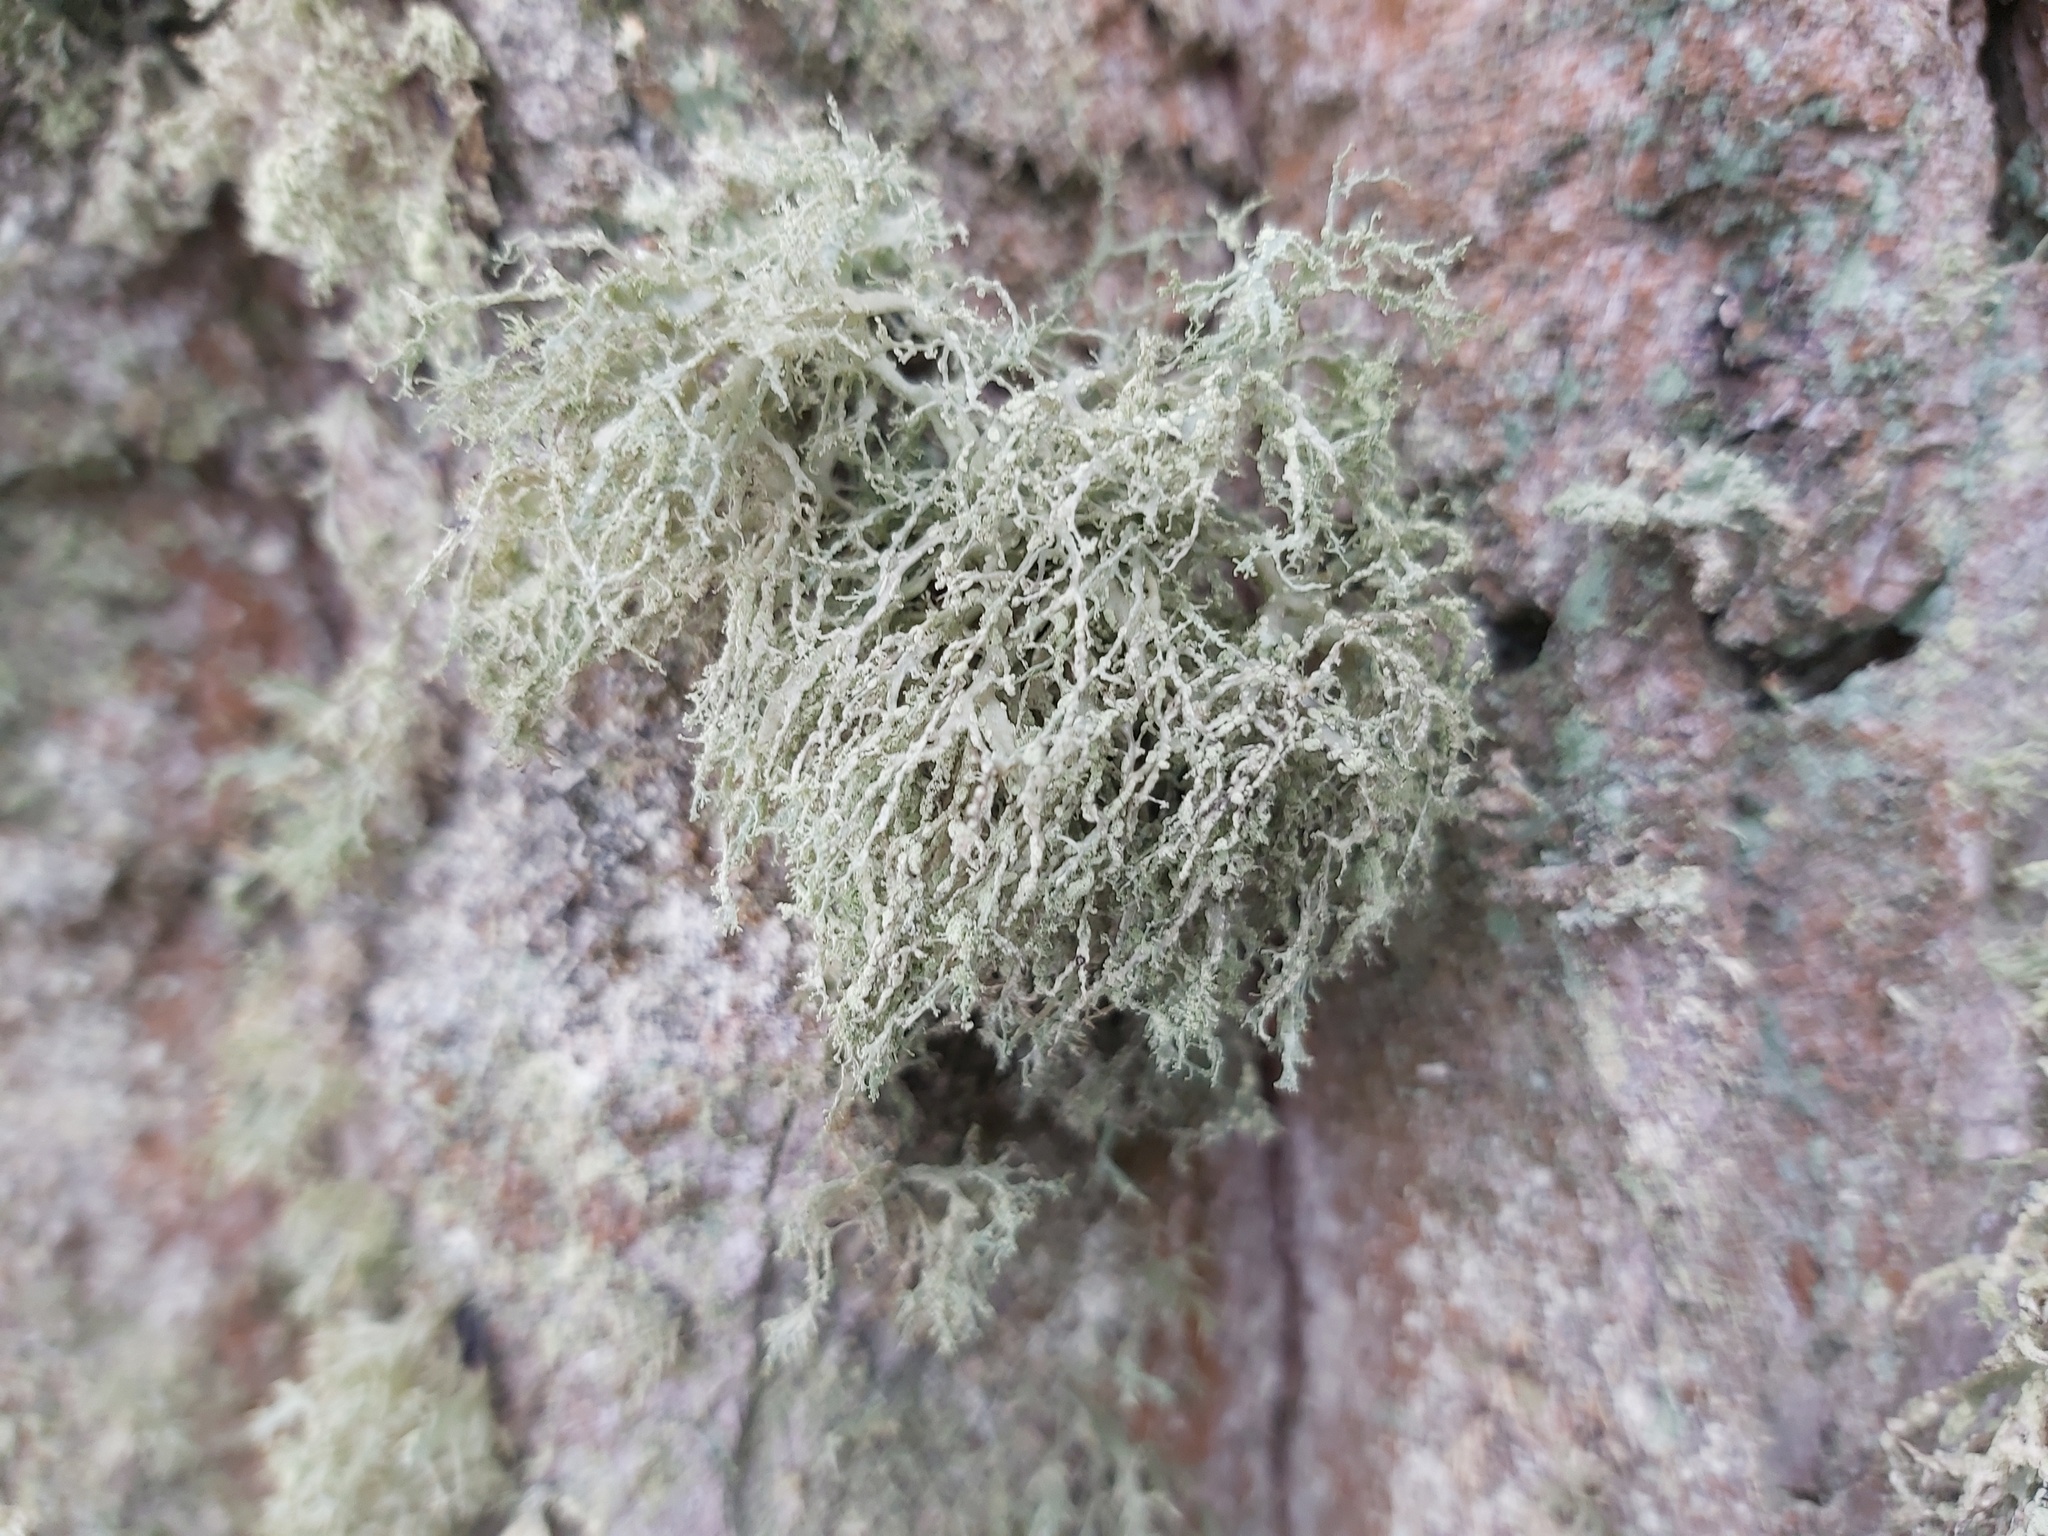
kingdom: Fungi
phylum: Ascomycota
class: Lecanoromycetes
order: Lecanorales
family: Ramalinaceae
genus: Ramalina
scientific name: Ramalina farinacea
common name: Farinose cartilage lichen
